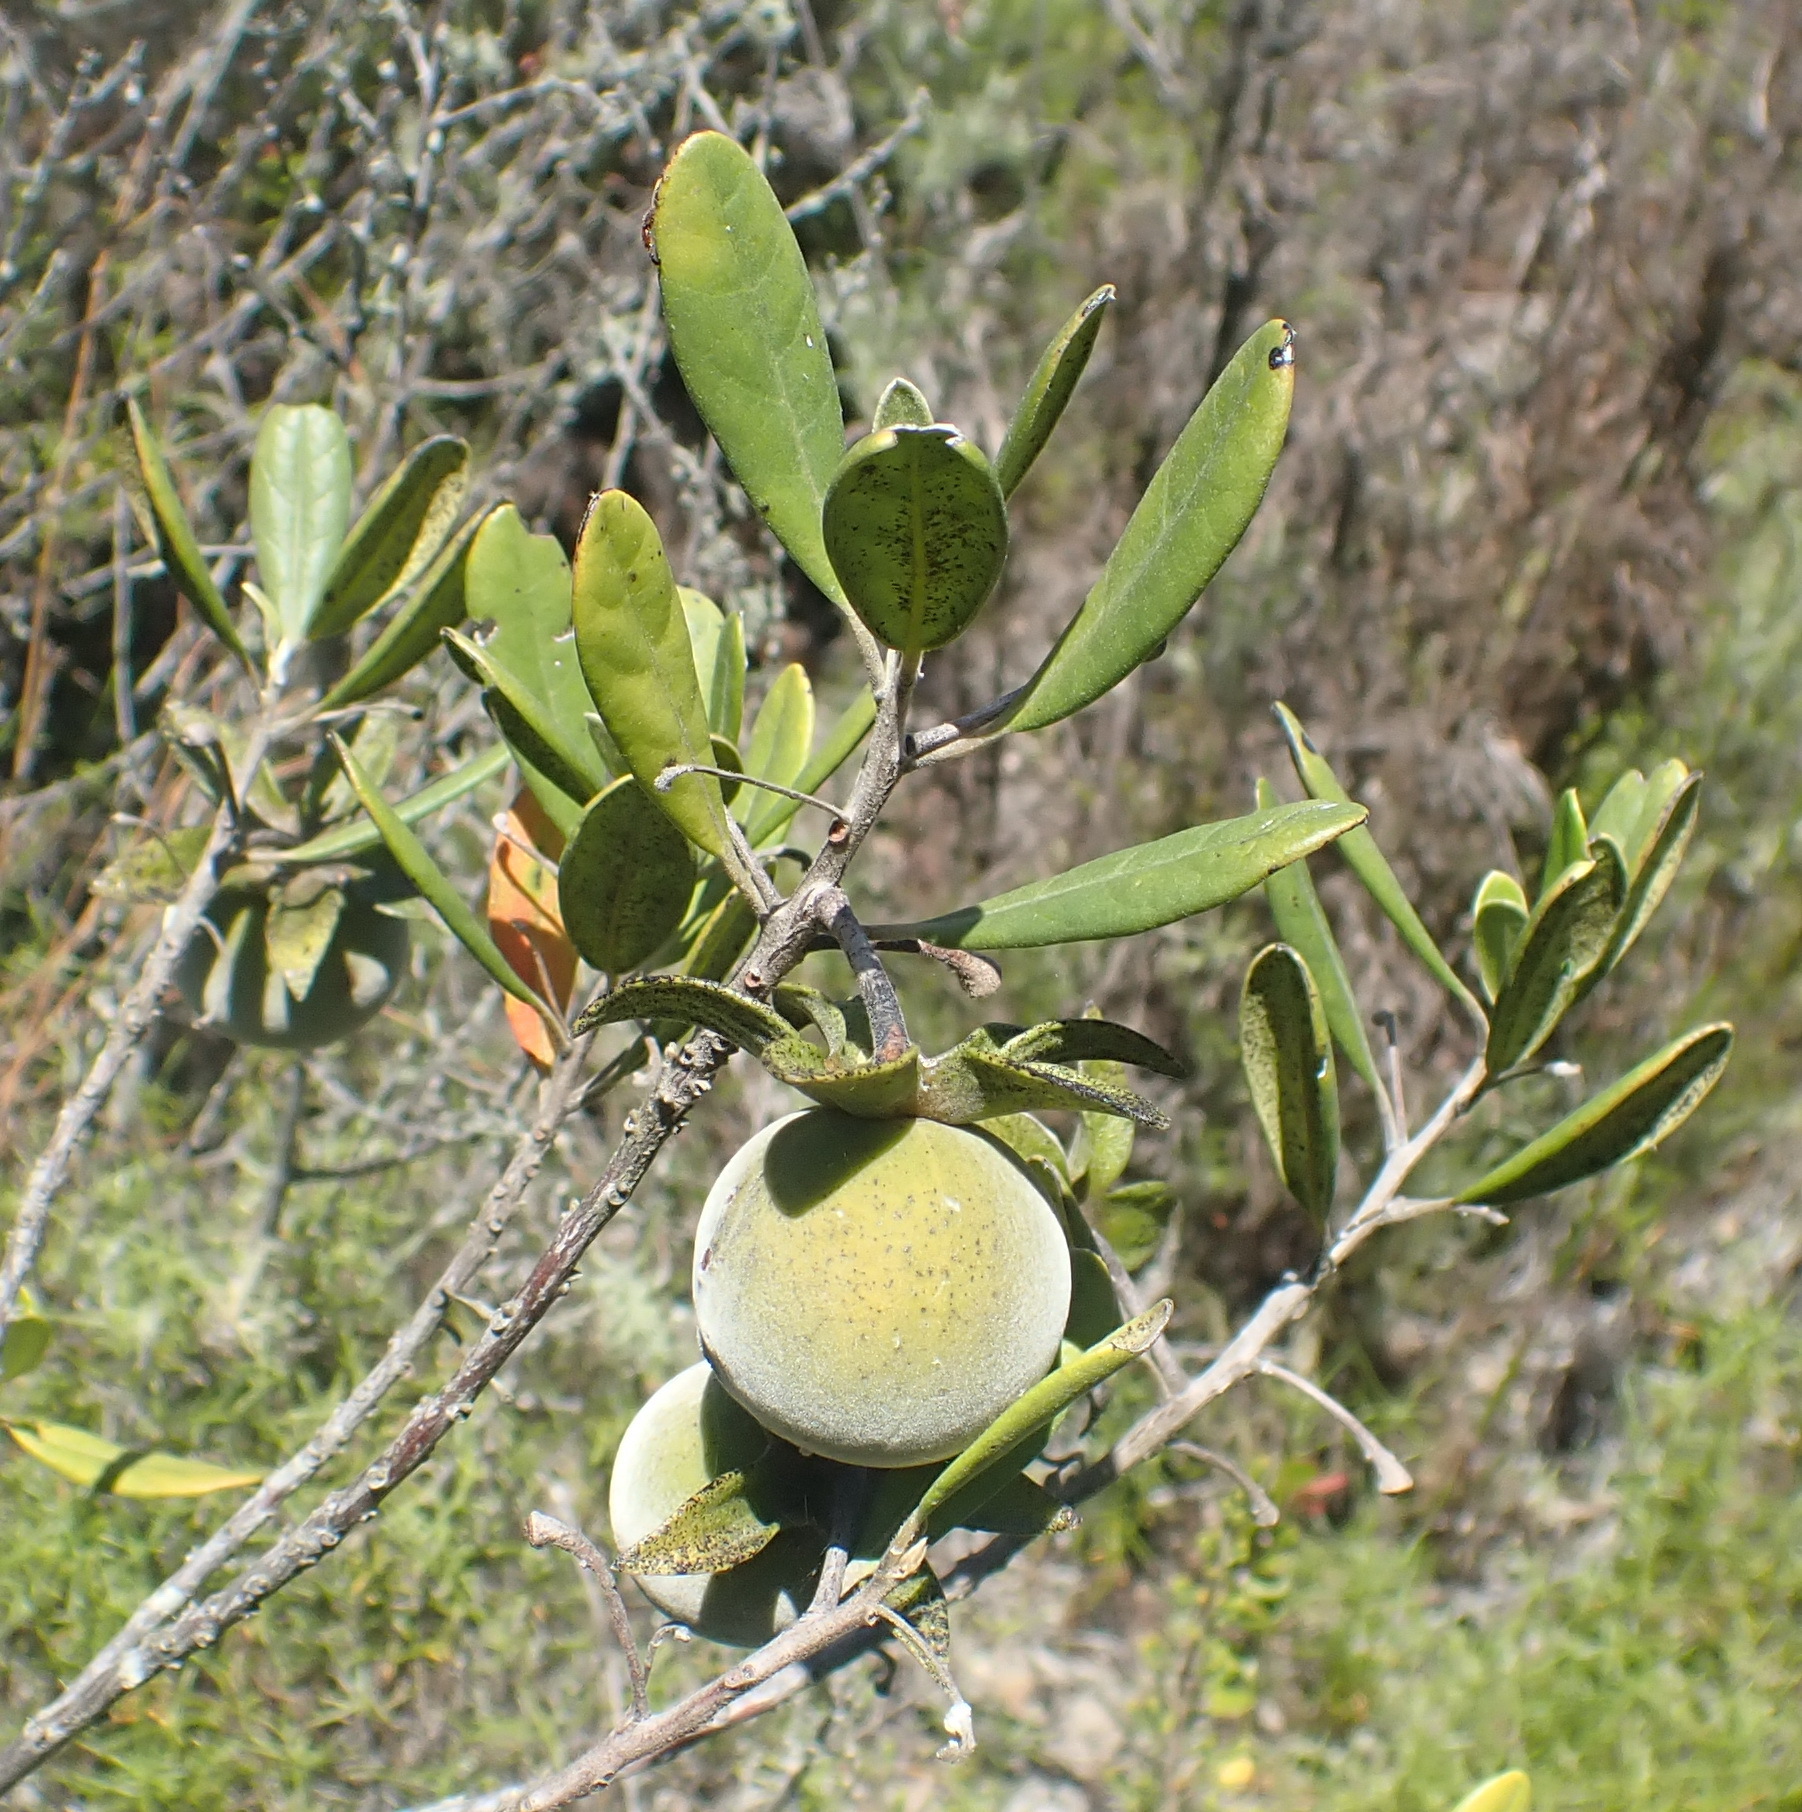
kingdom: Plantae
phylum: Tracheophyta
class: Magnoliopsida
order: Ericales
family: Ebenaceae
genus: Diospyros
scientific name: Diospyros dichrophylla
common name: Common star-apple
